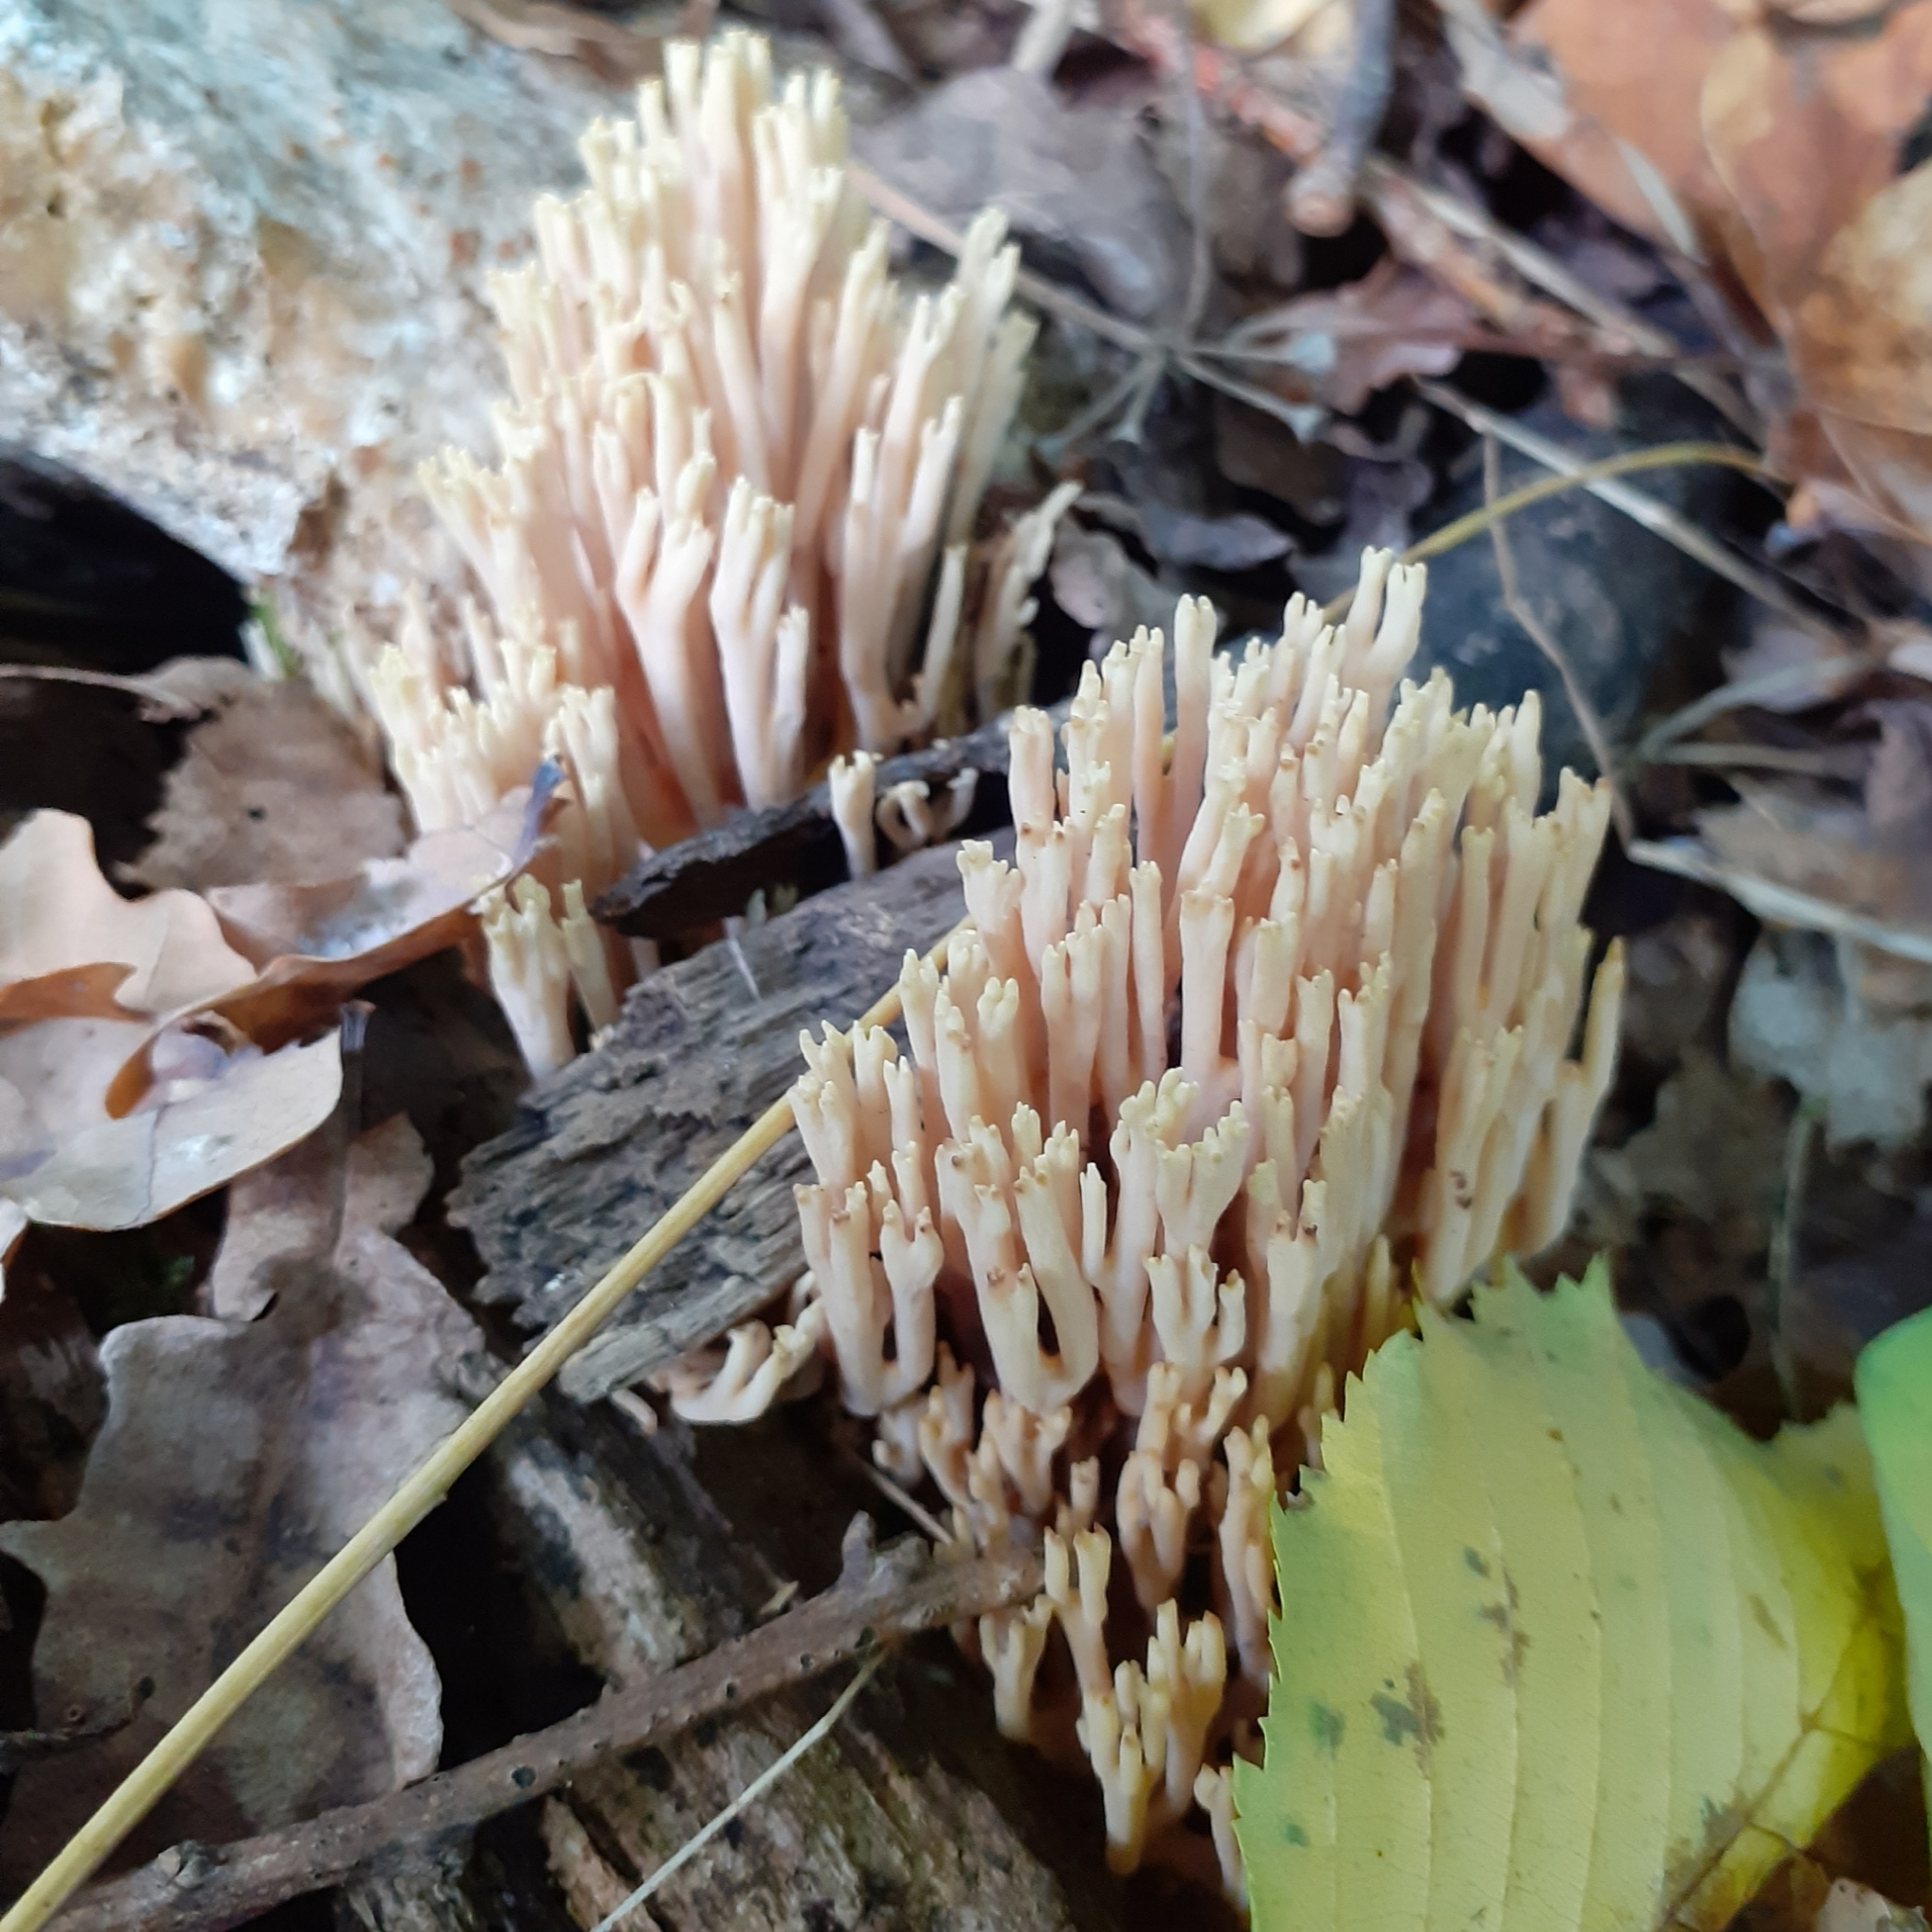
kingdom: Fungi
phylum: Basidiomycota
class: Agaricomycetes
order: Gomphales
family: Gomphaceae
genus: Ramaria
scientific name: Ramaria stricta
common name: Upright coral
